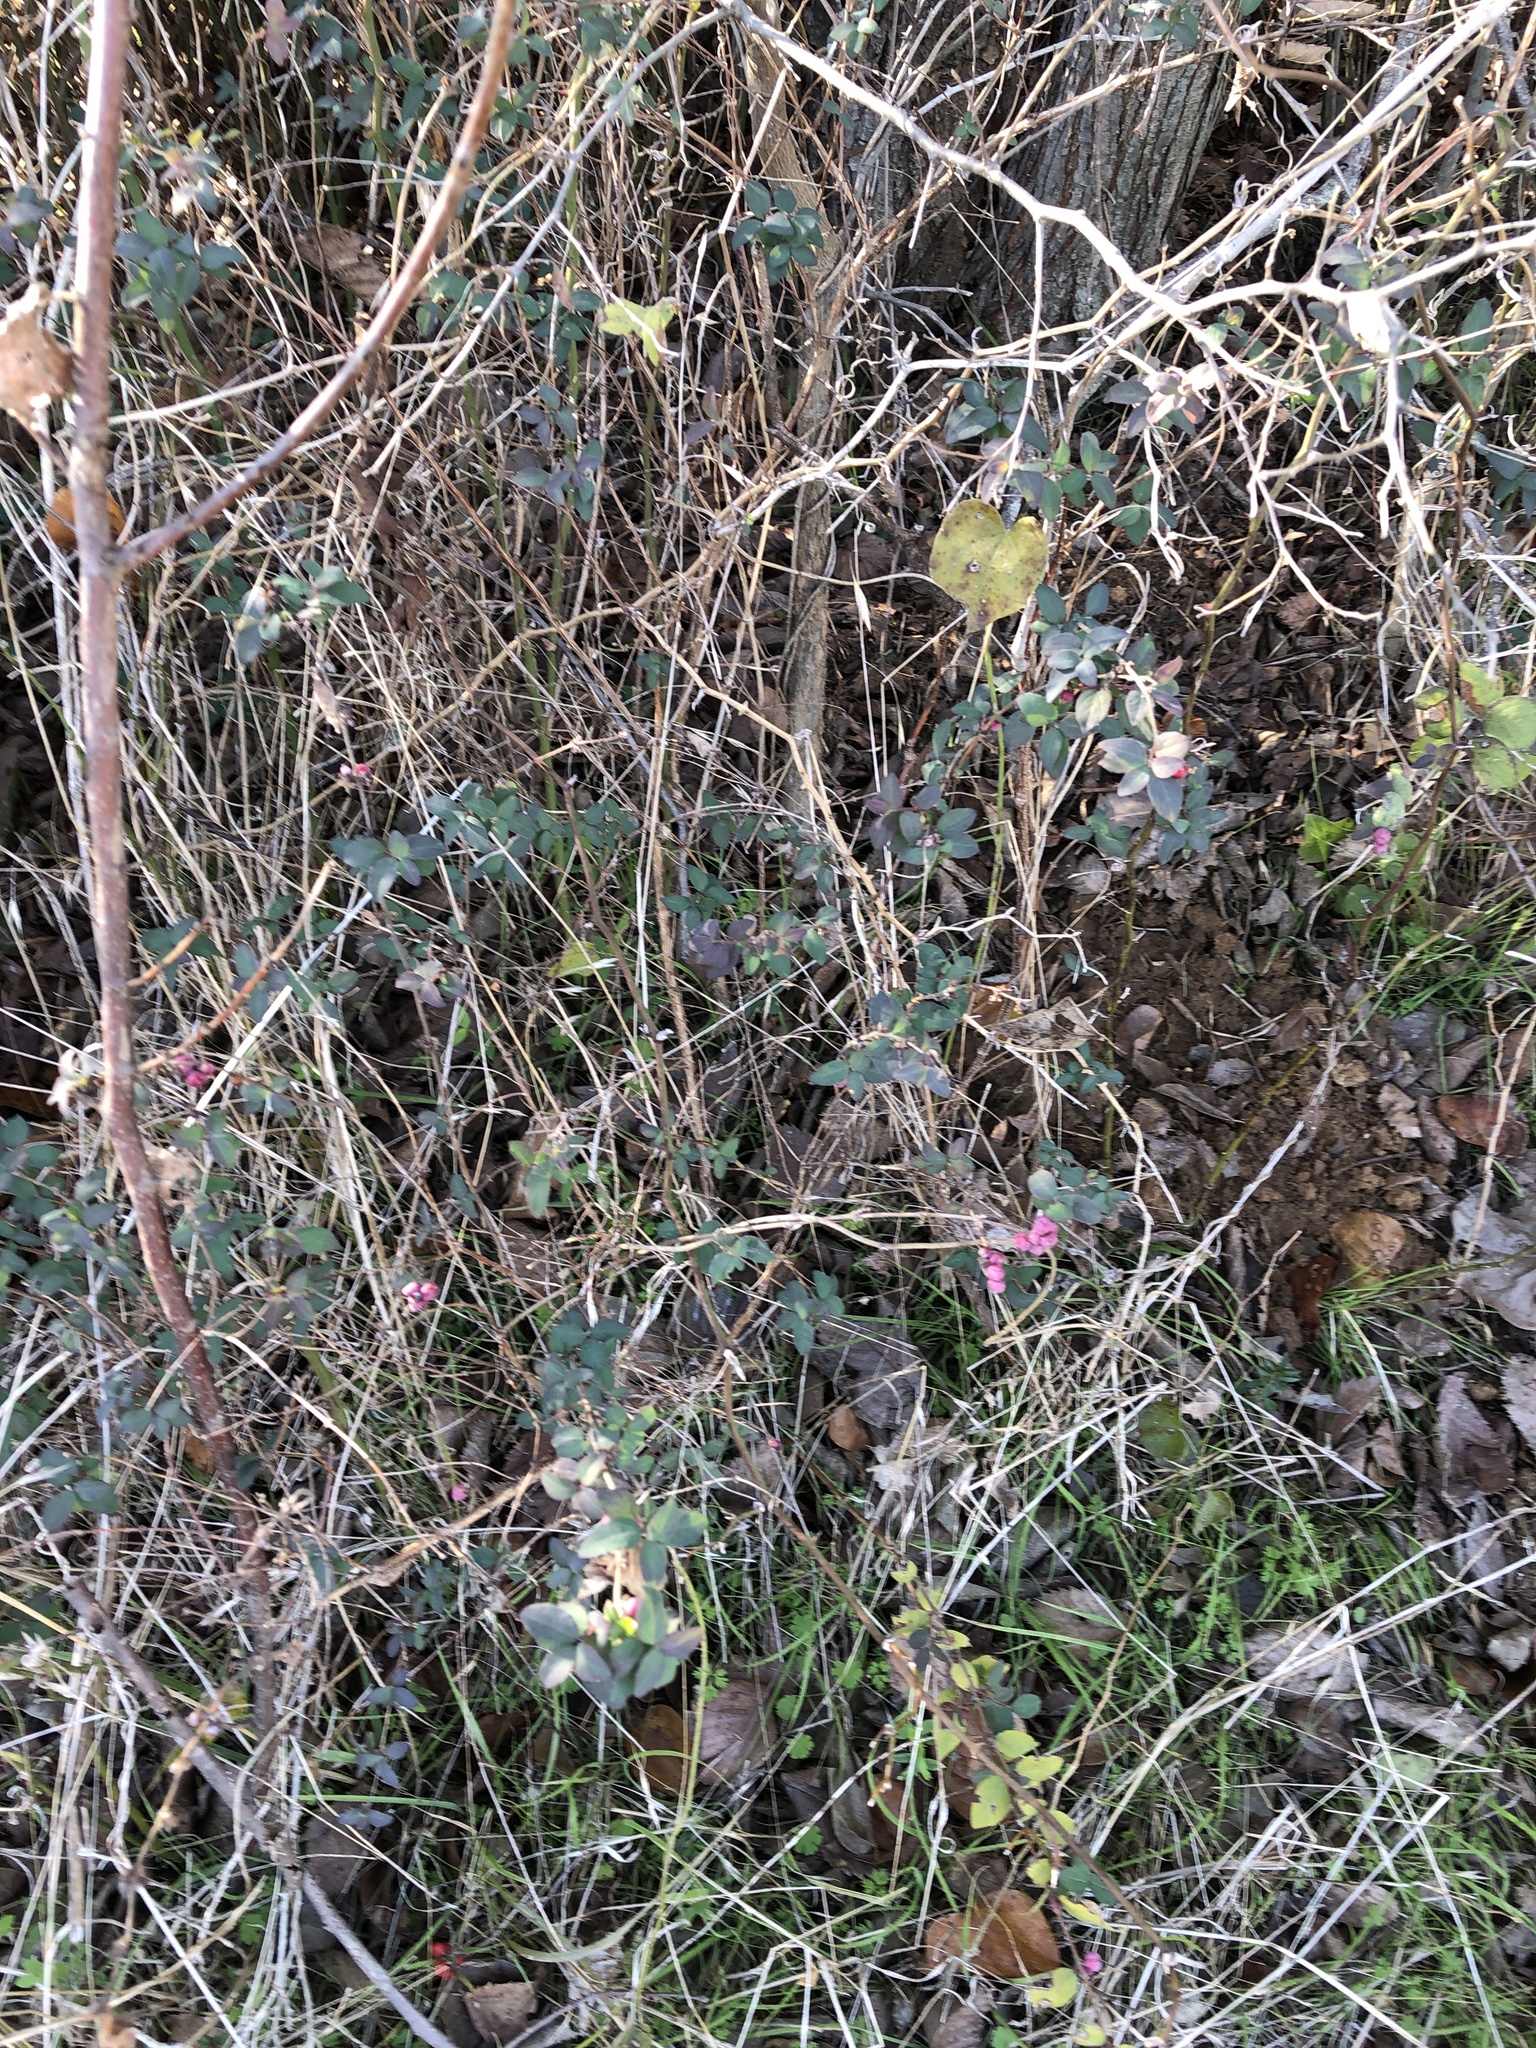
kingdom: Plantae
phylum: Tracheophyta
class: Magnoliopsida
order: Dipsacales
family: Caprifoliaceae
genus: Symphoricarpos
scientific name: Symphoricarpos orbiculatus
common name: Coralberry
